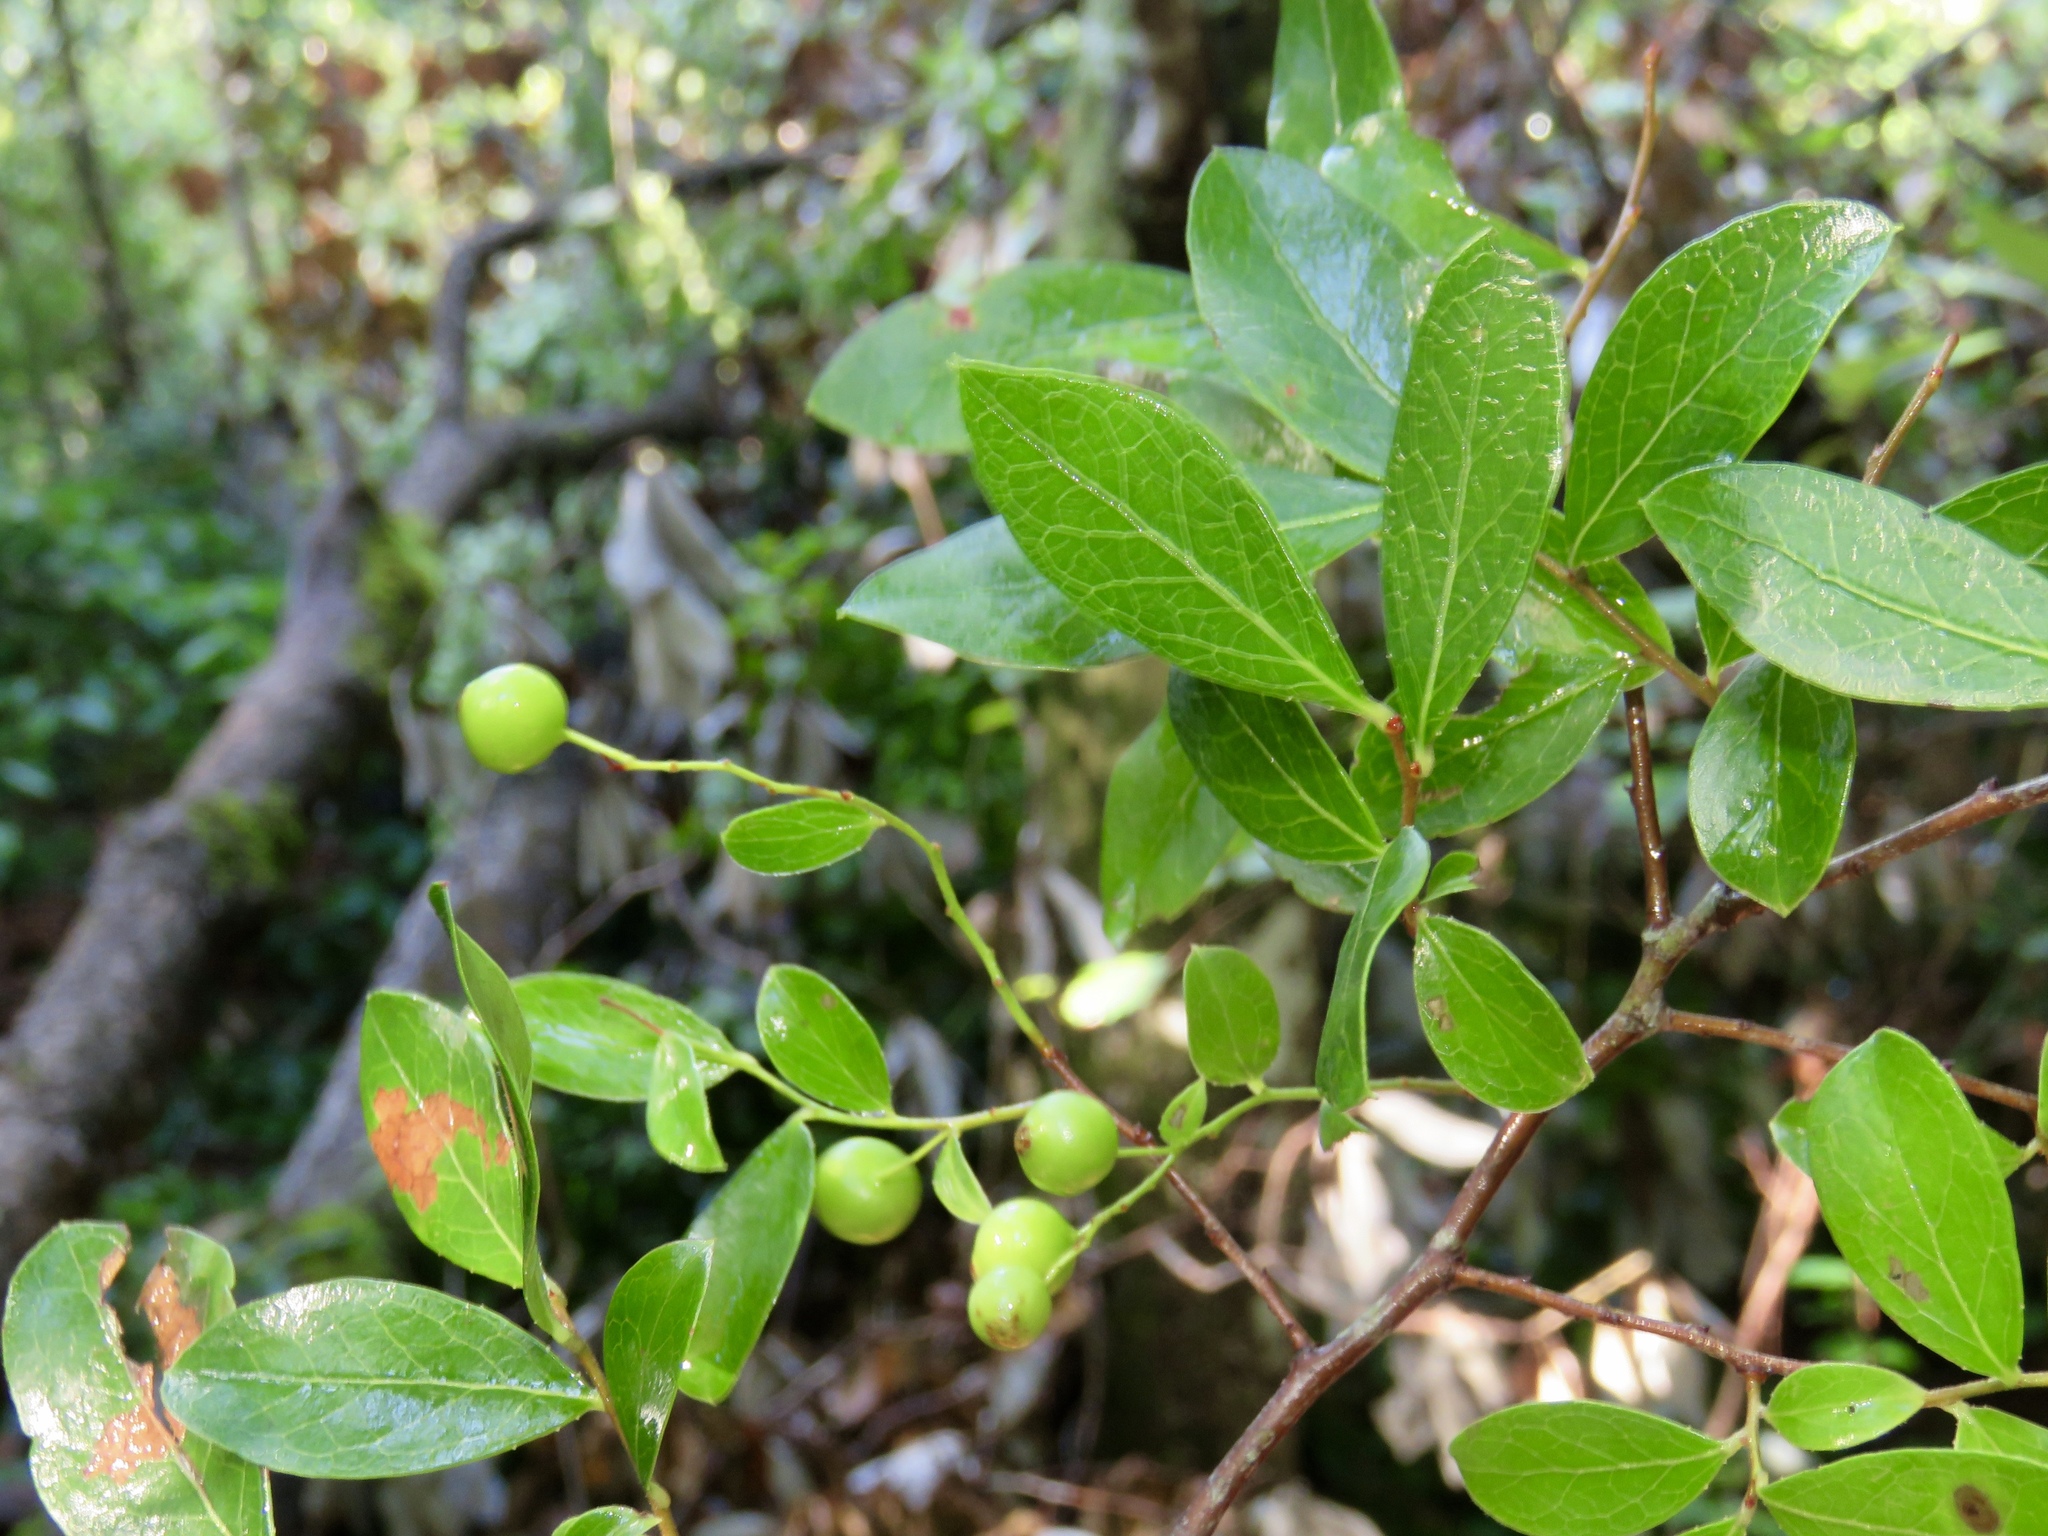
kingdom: Plantae
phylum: Tracheophyta
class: Magnoliopsida
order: Ericales
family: Ericaceae
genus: Vaccinium
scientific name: Vaccinium arboreum
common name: Farkleberry
